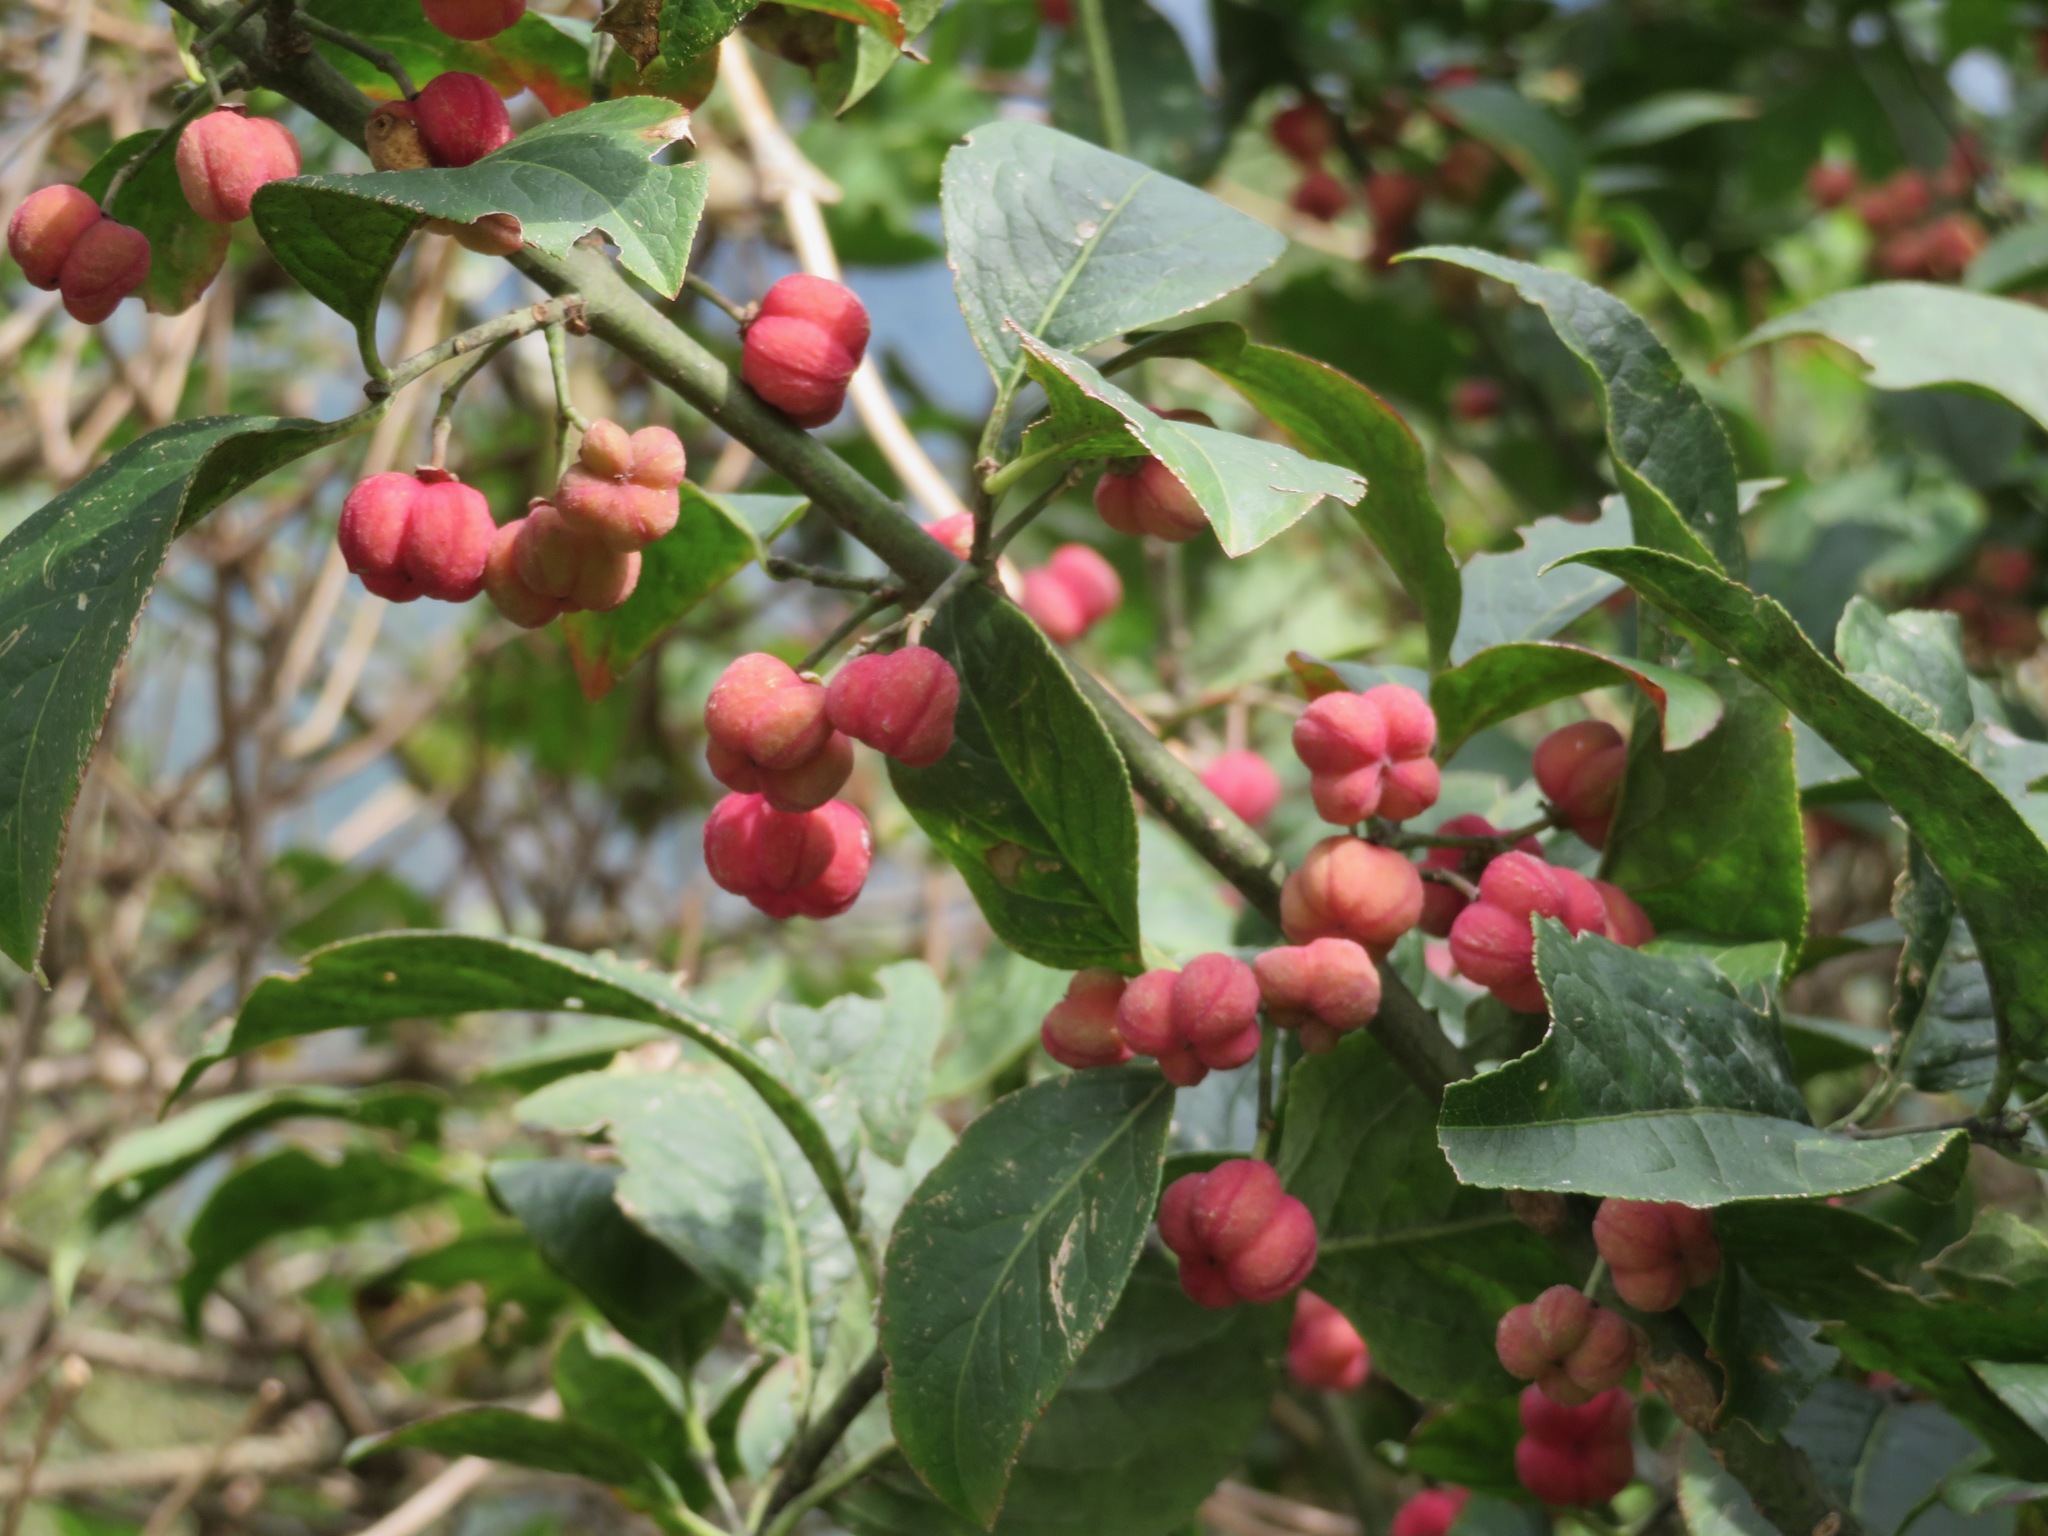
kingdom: Plantae
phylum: Tracheophyta
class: Magnoliopsida
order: Celastrales
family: Celastraceae
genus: Euonymus
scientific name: Euonymus europaeus
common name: Spindle
